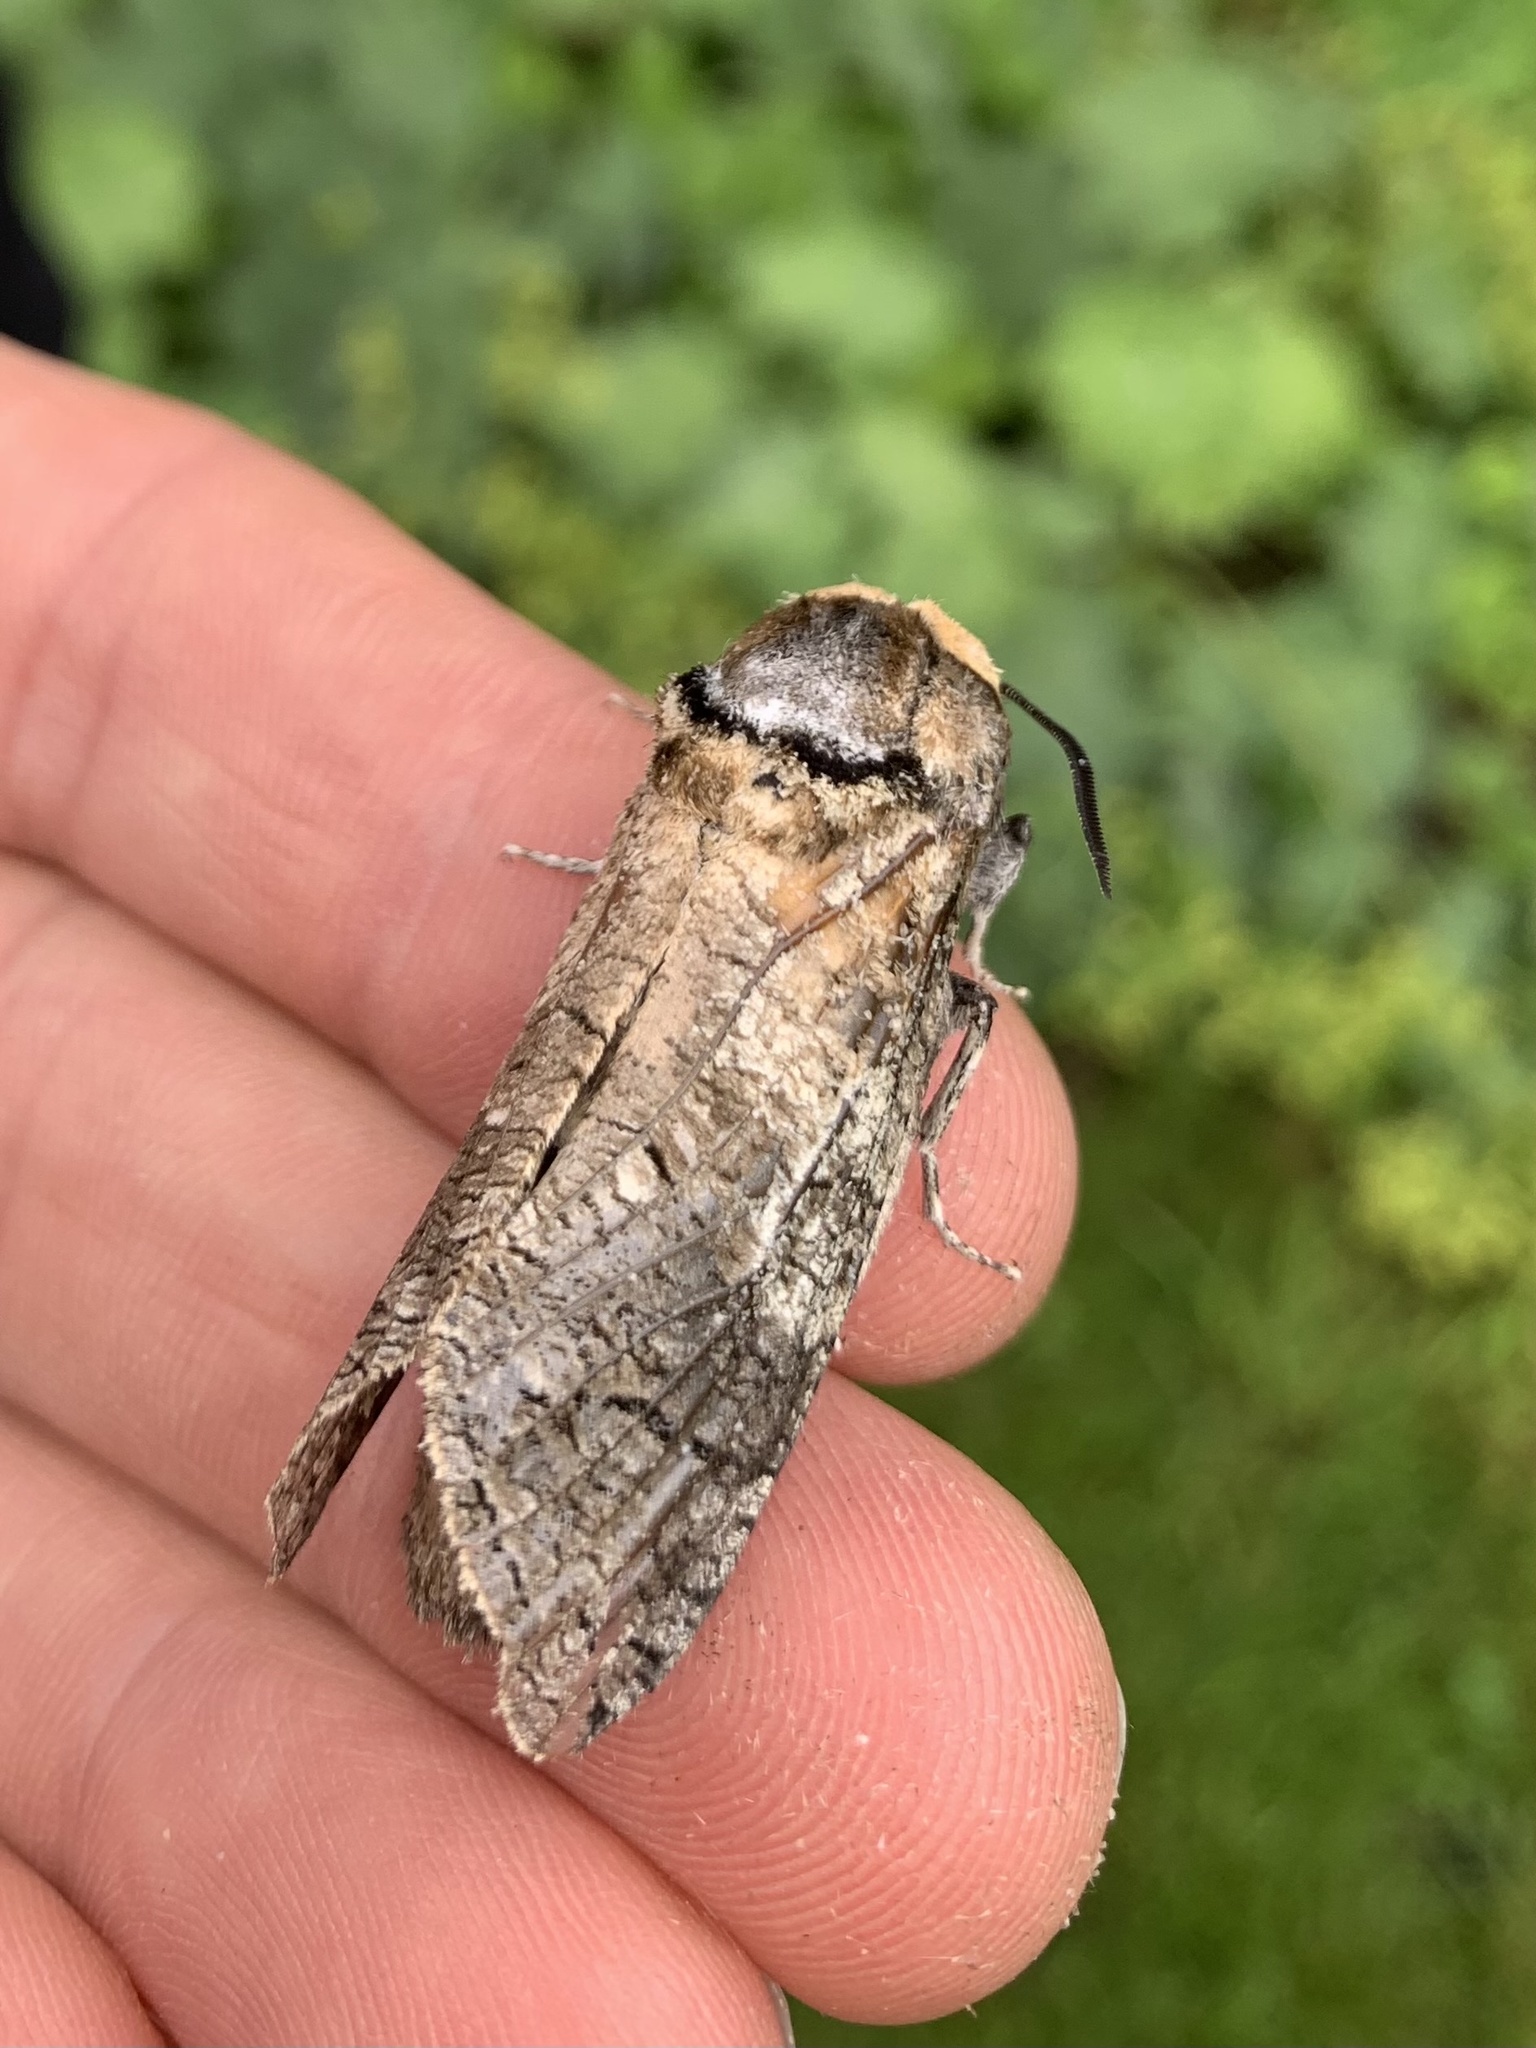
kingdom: Animalia
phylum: Arthropoda
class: Insecta
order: Lepidoptera
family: Cossidae
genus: Cossus
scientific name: Cossus cossus
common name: Goat moth
